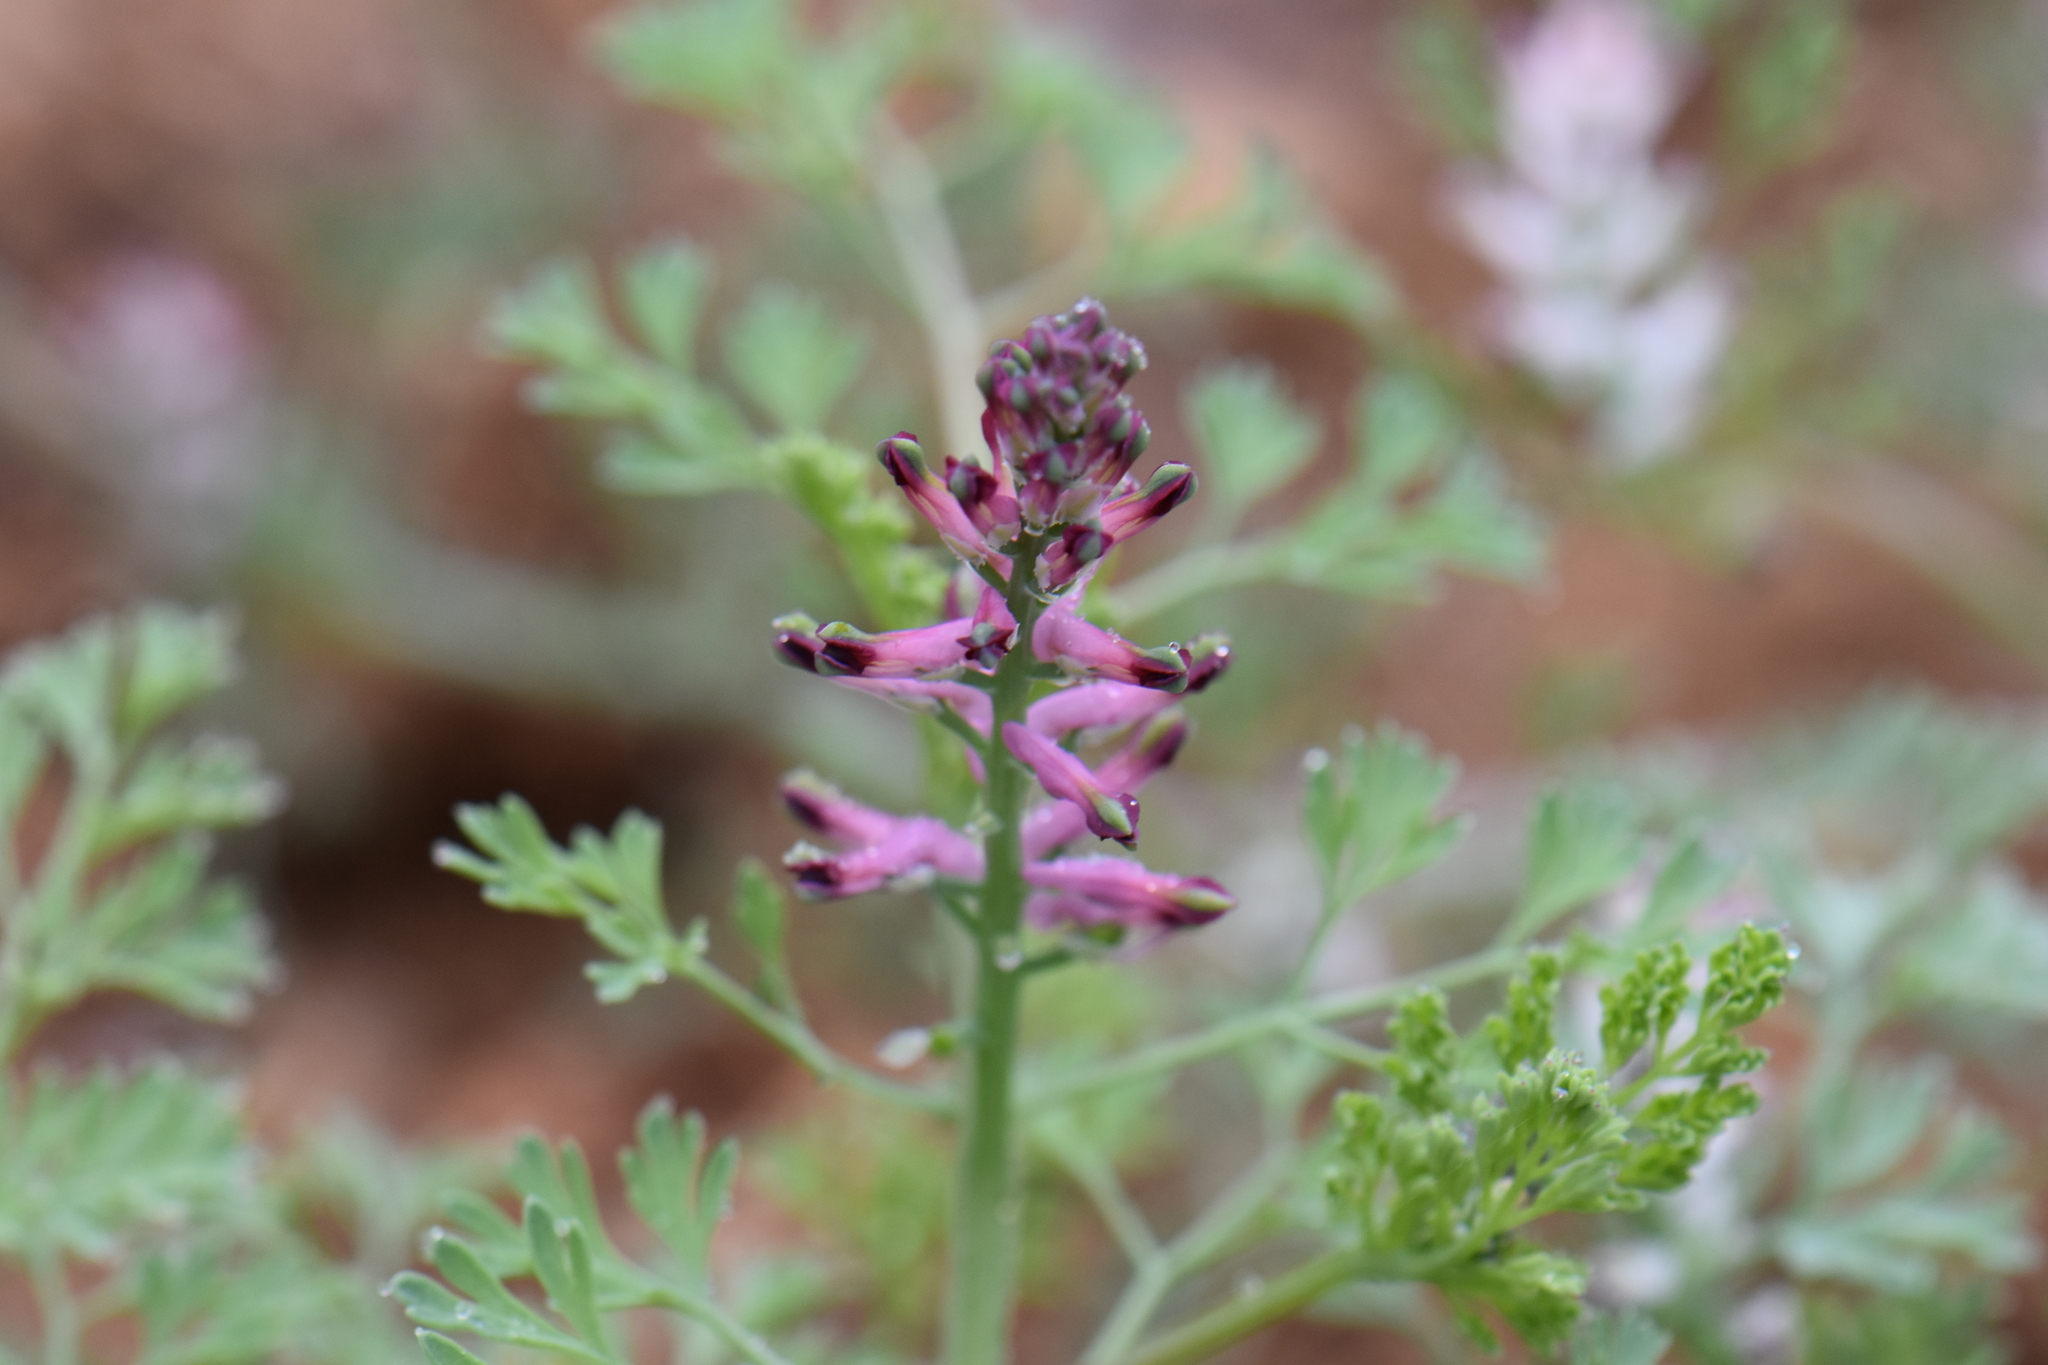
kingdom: Plantae
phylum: Tracheophyta
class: Magnoliopsida
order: Ranunculales
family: Papaveraceae
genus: Fumaria
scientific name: Fumaria officinalis
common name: Common fumitory
